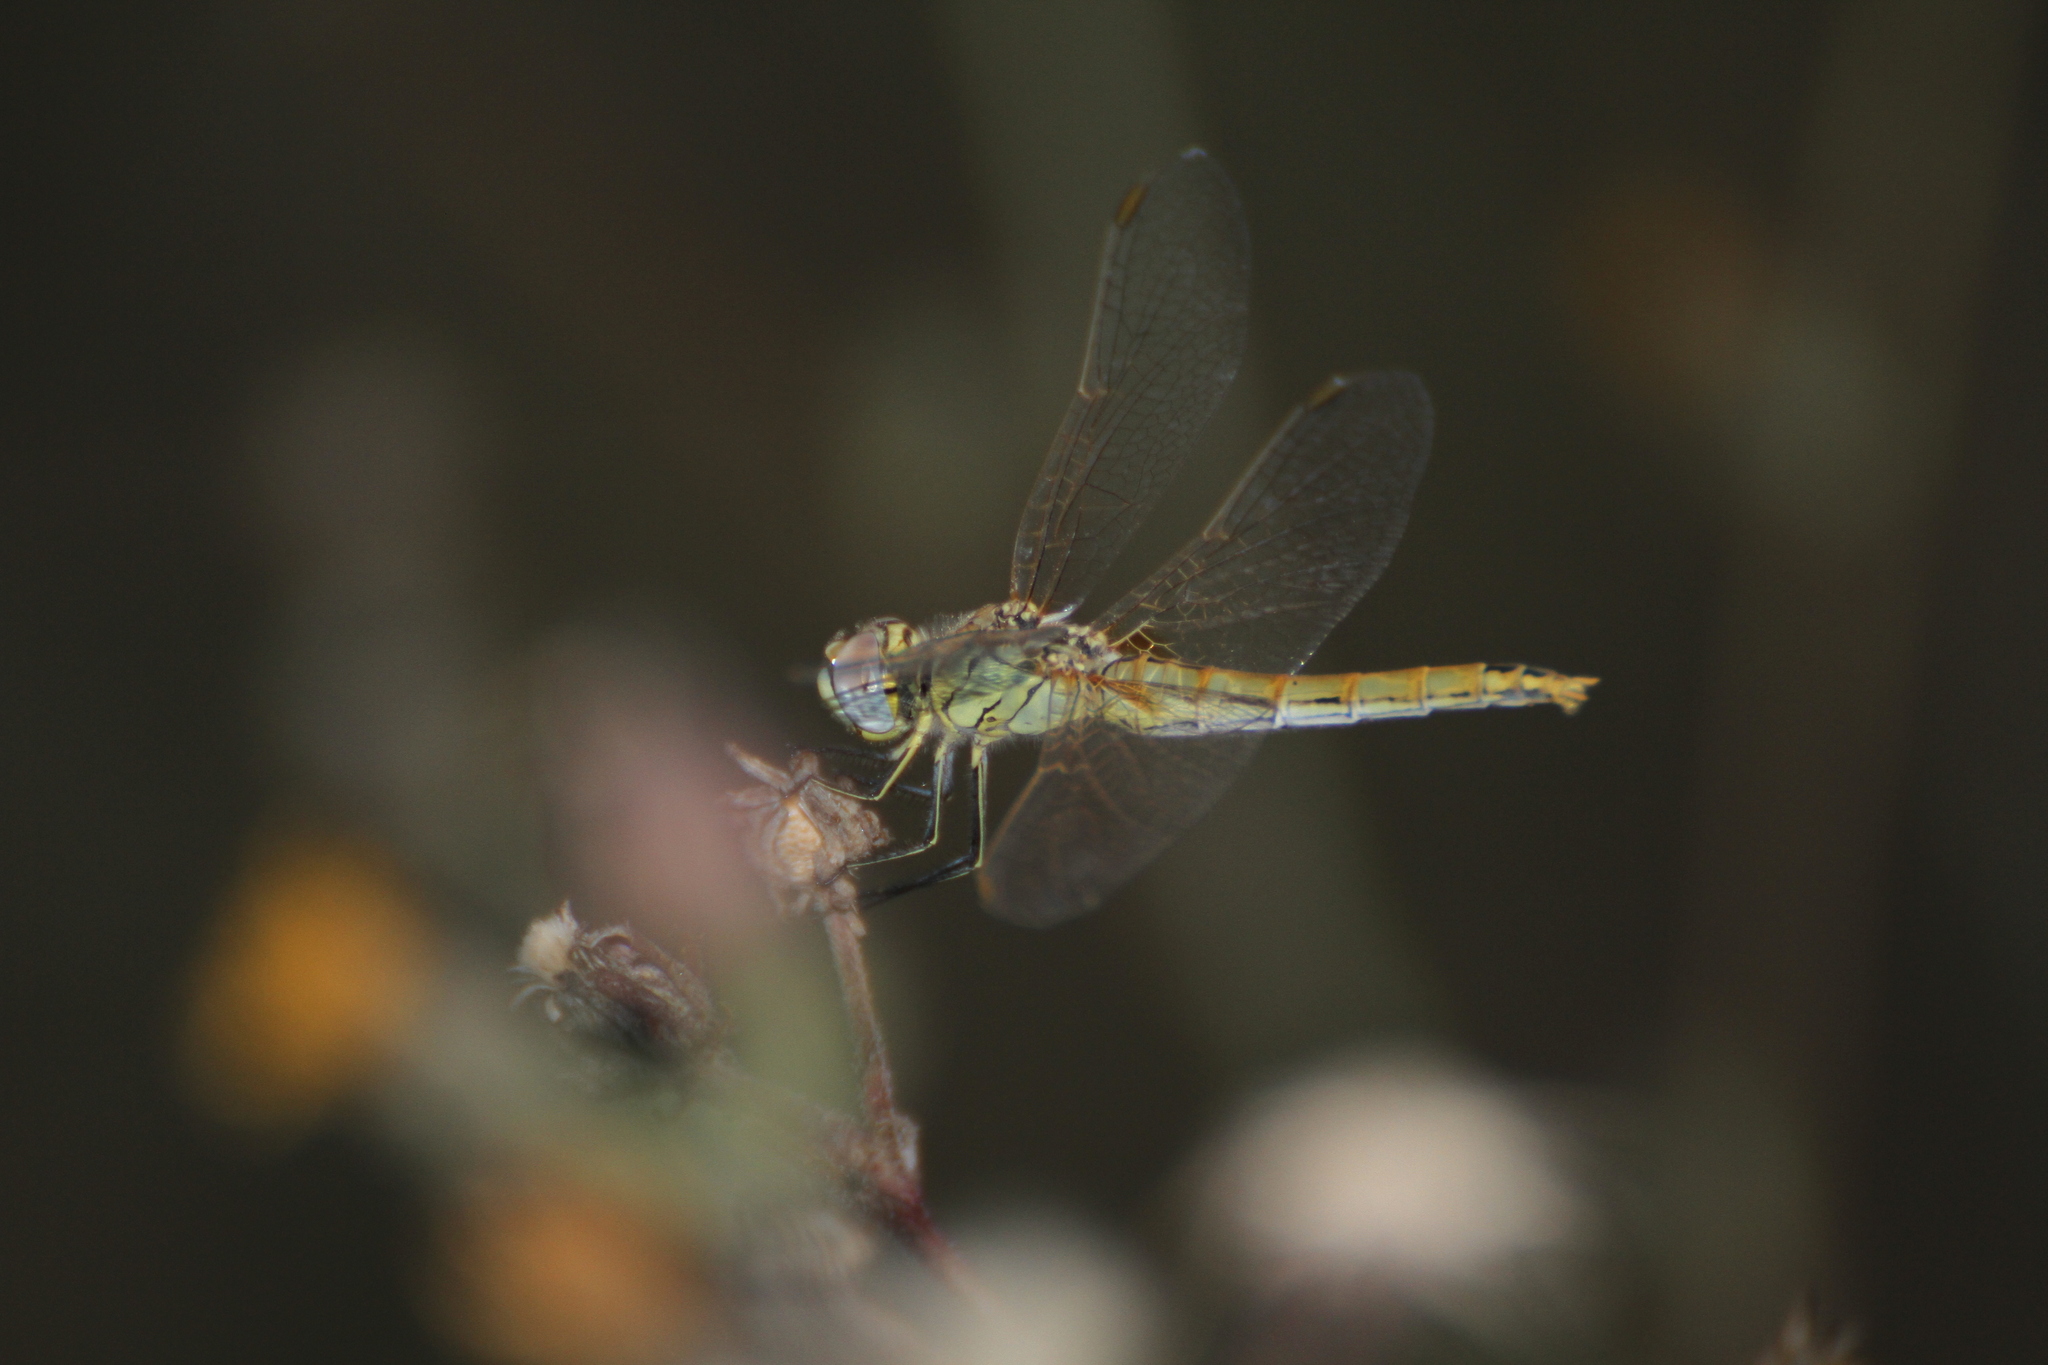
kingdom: Animalia
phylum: Arthropoda
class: Insecta
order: Odonata
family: Libellulidae
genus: Sympetrum
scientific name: Sympetrum fonscolombii
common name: Red-veined darter
